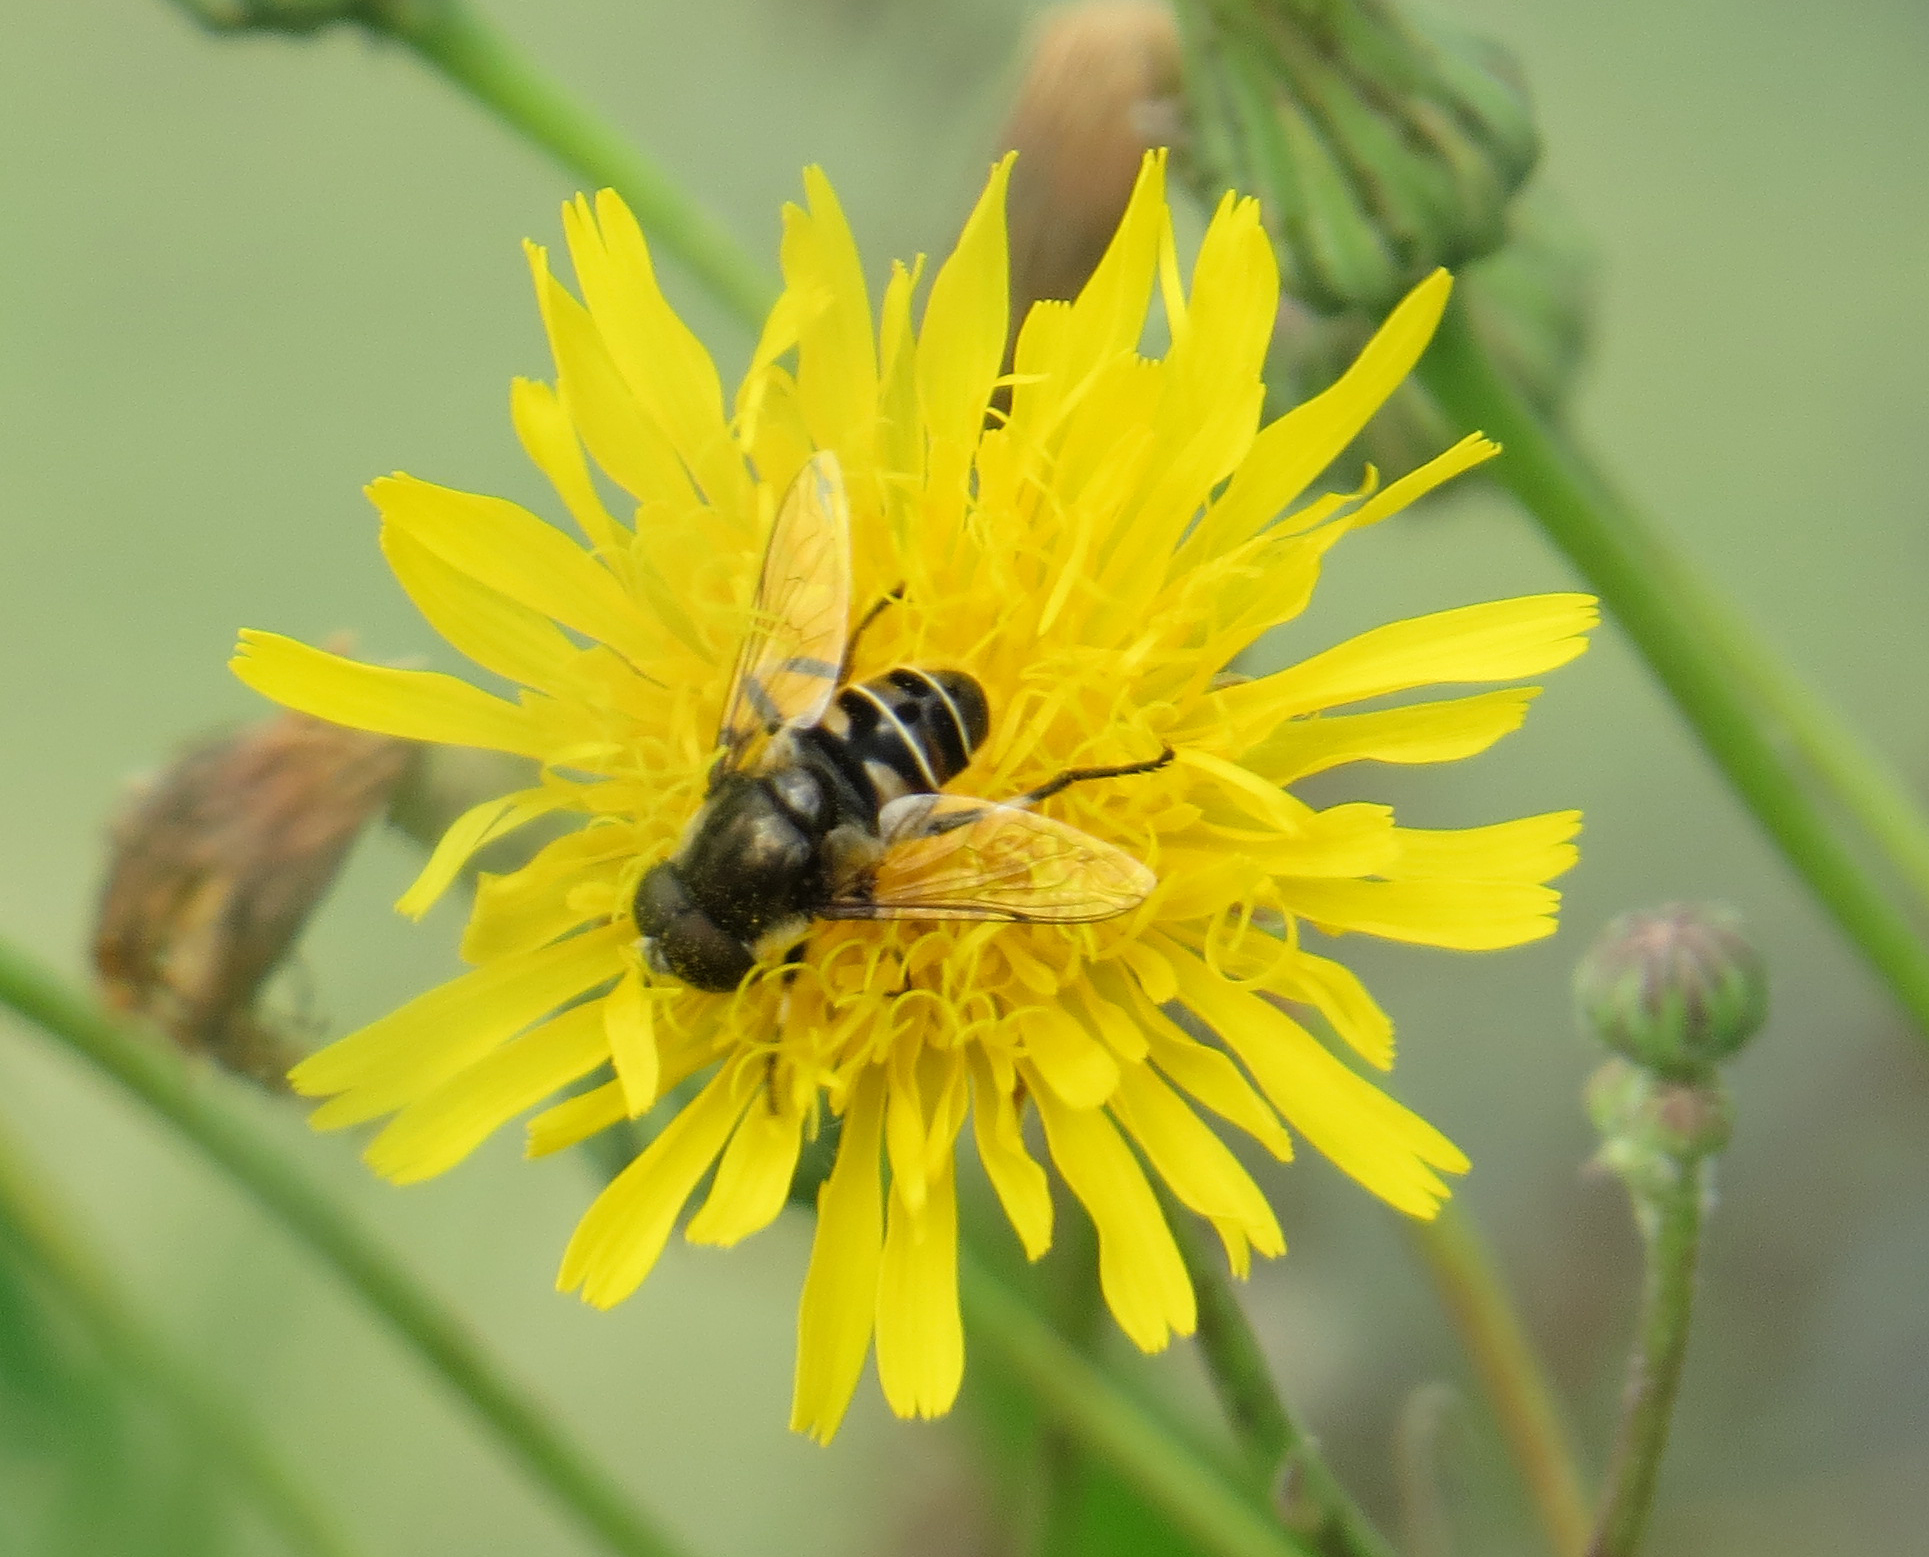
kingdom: Animalia
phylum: Arthropoda
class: Insecta
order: Diptera
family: Syrphidae
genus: Eristalis
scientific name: Eristalis dimidiata
